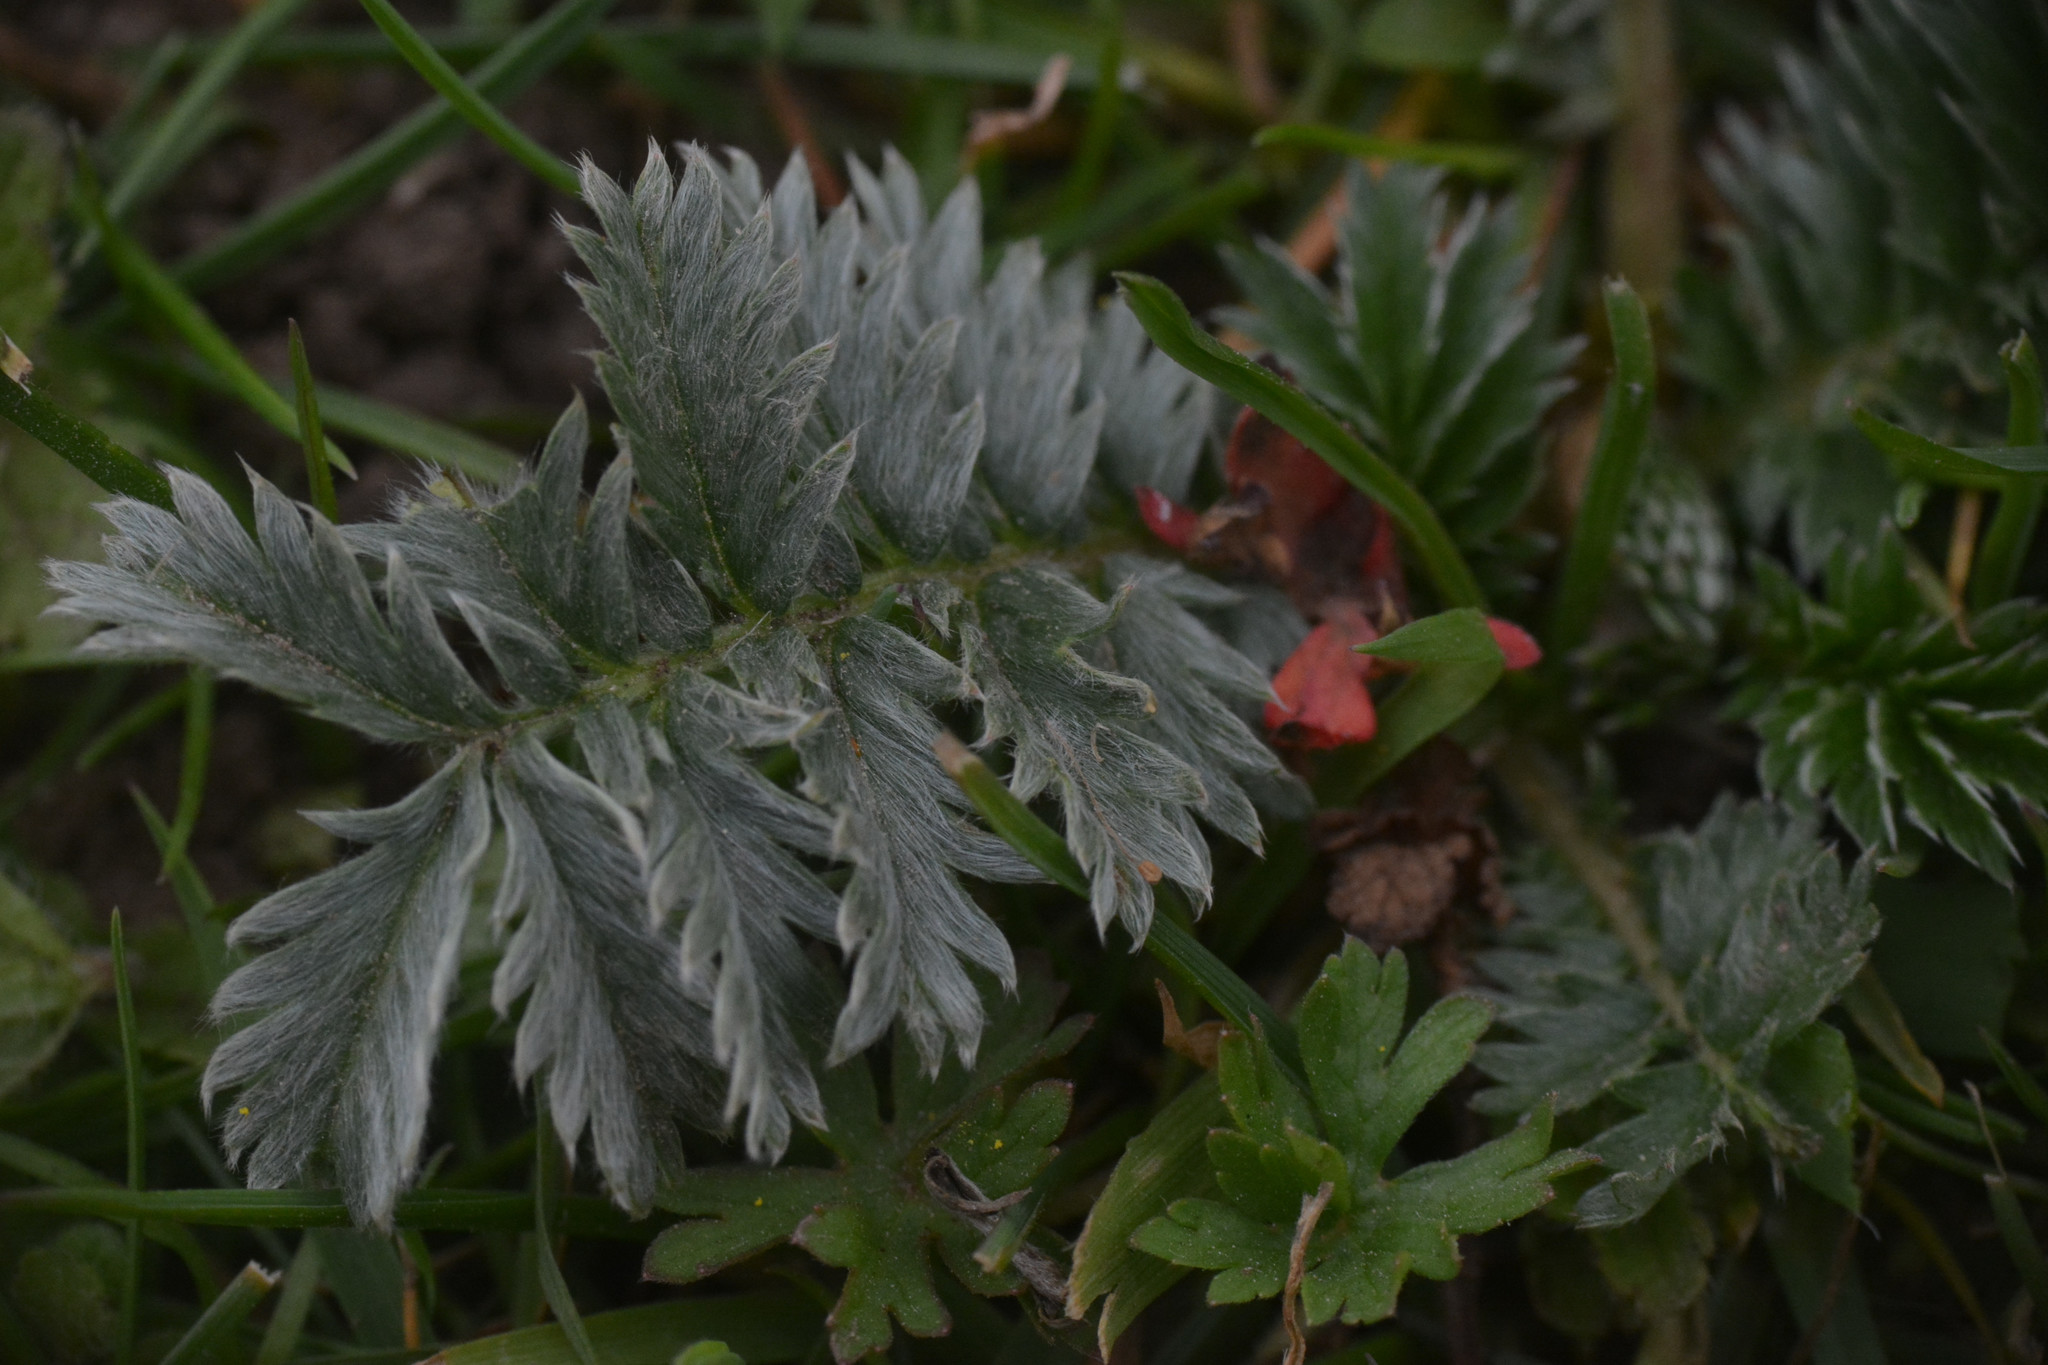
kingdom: Plantae
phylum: Tracheophyta
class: Magnoliopsida
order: Rosales
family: Rosaceae
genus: Argentina
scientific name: Argentina anserina
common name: Common silverweed
